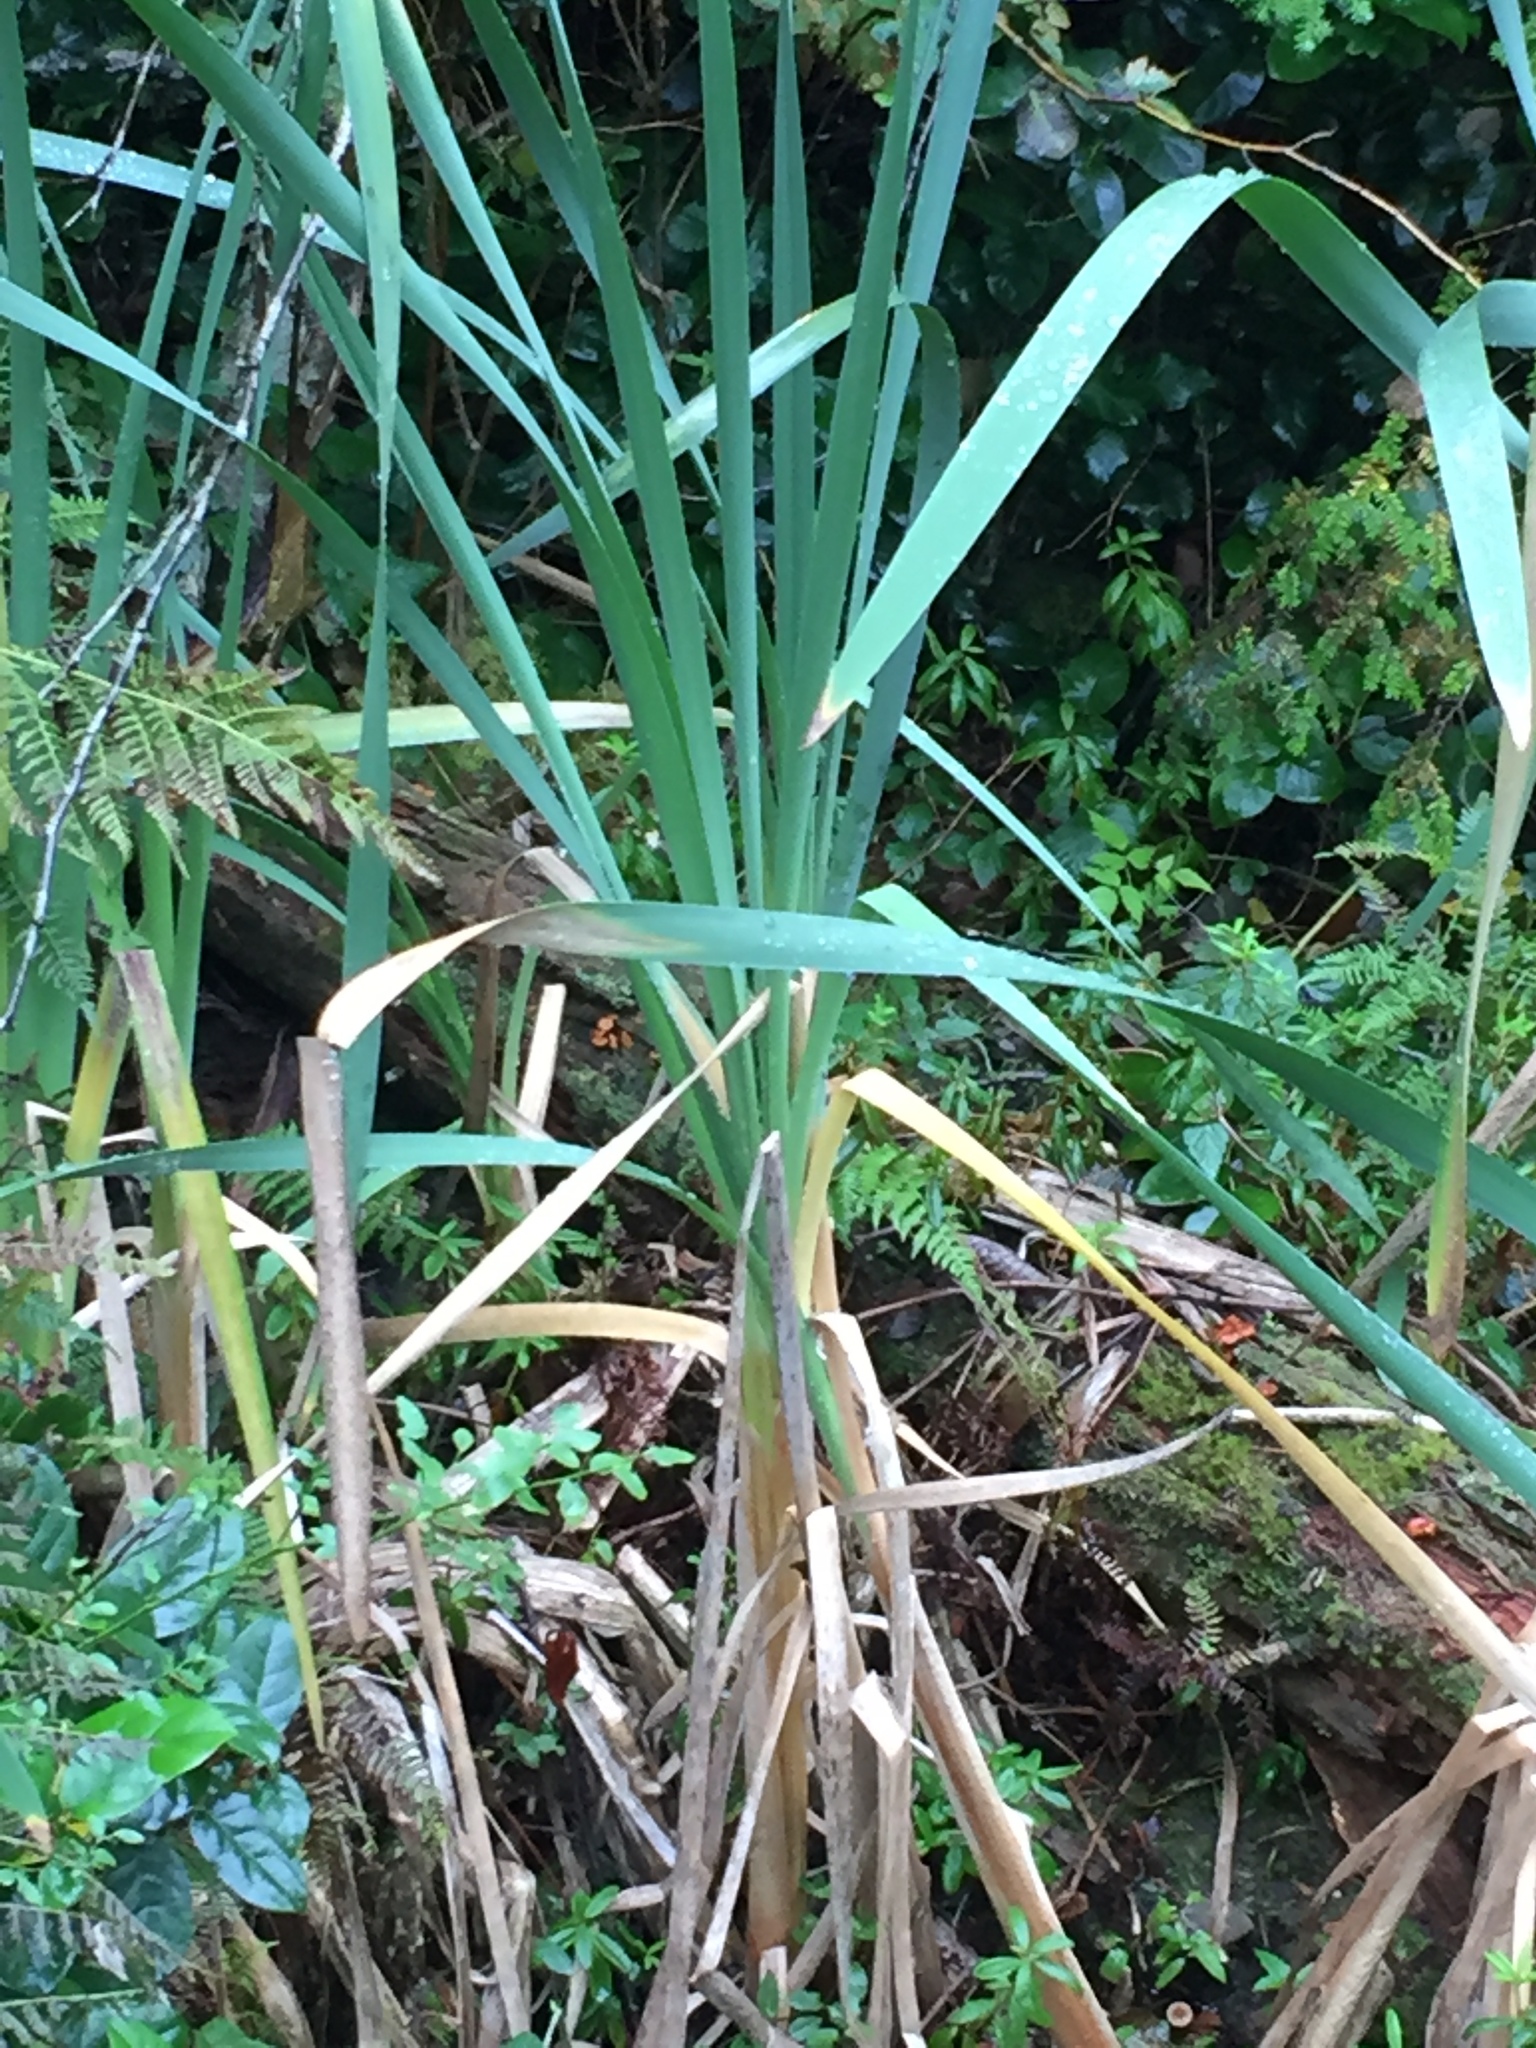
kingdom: Plantae
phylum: Tracheophyta
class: Liliopsida
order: Poales
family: Typhaceae
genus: Typha
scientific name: Typha latifolia
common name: Broadleaf cattail
